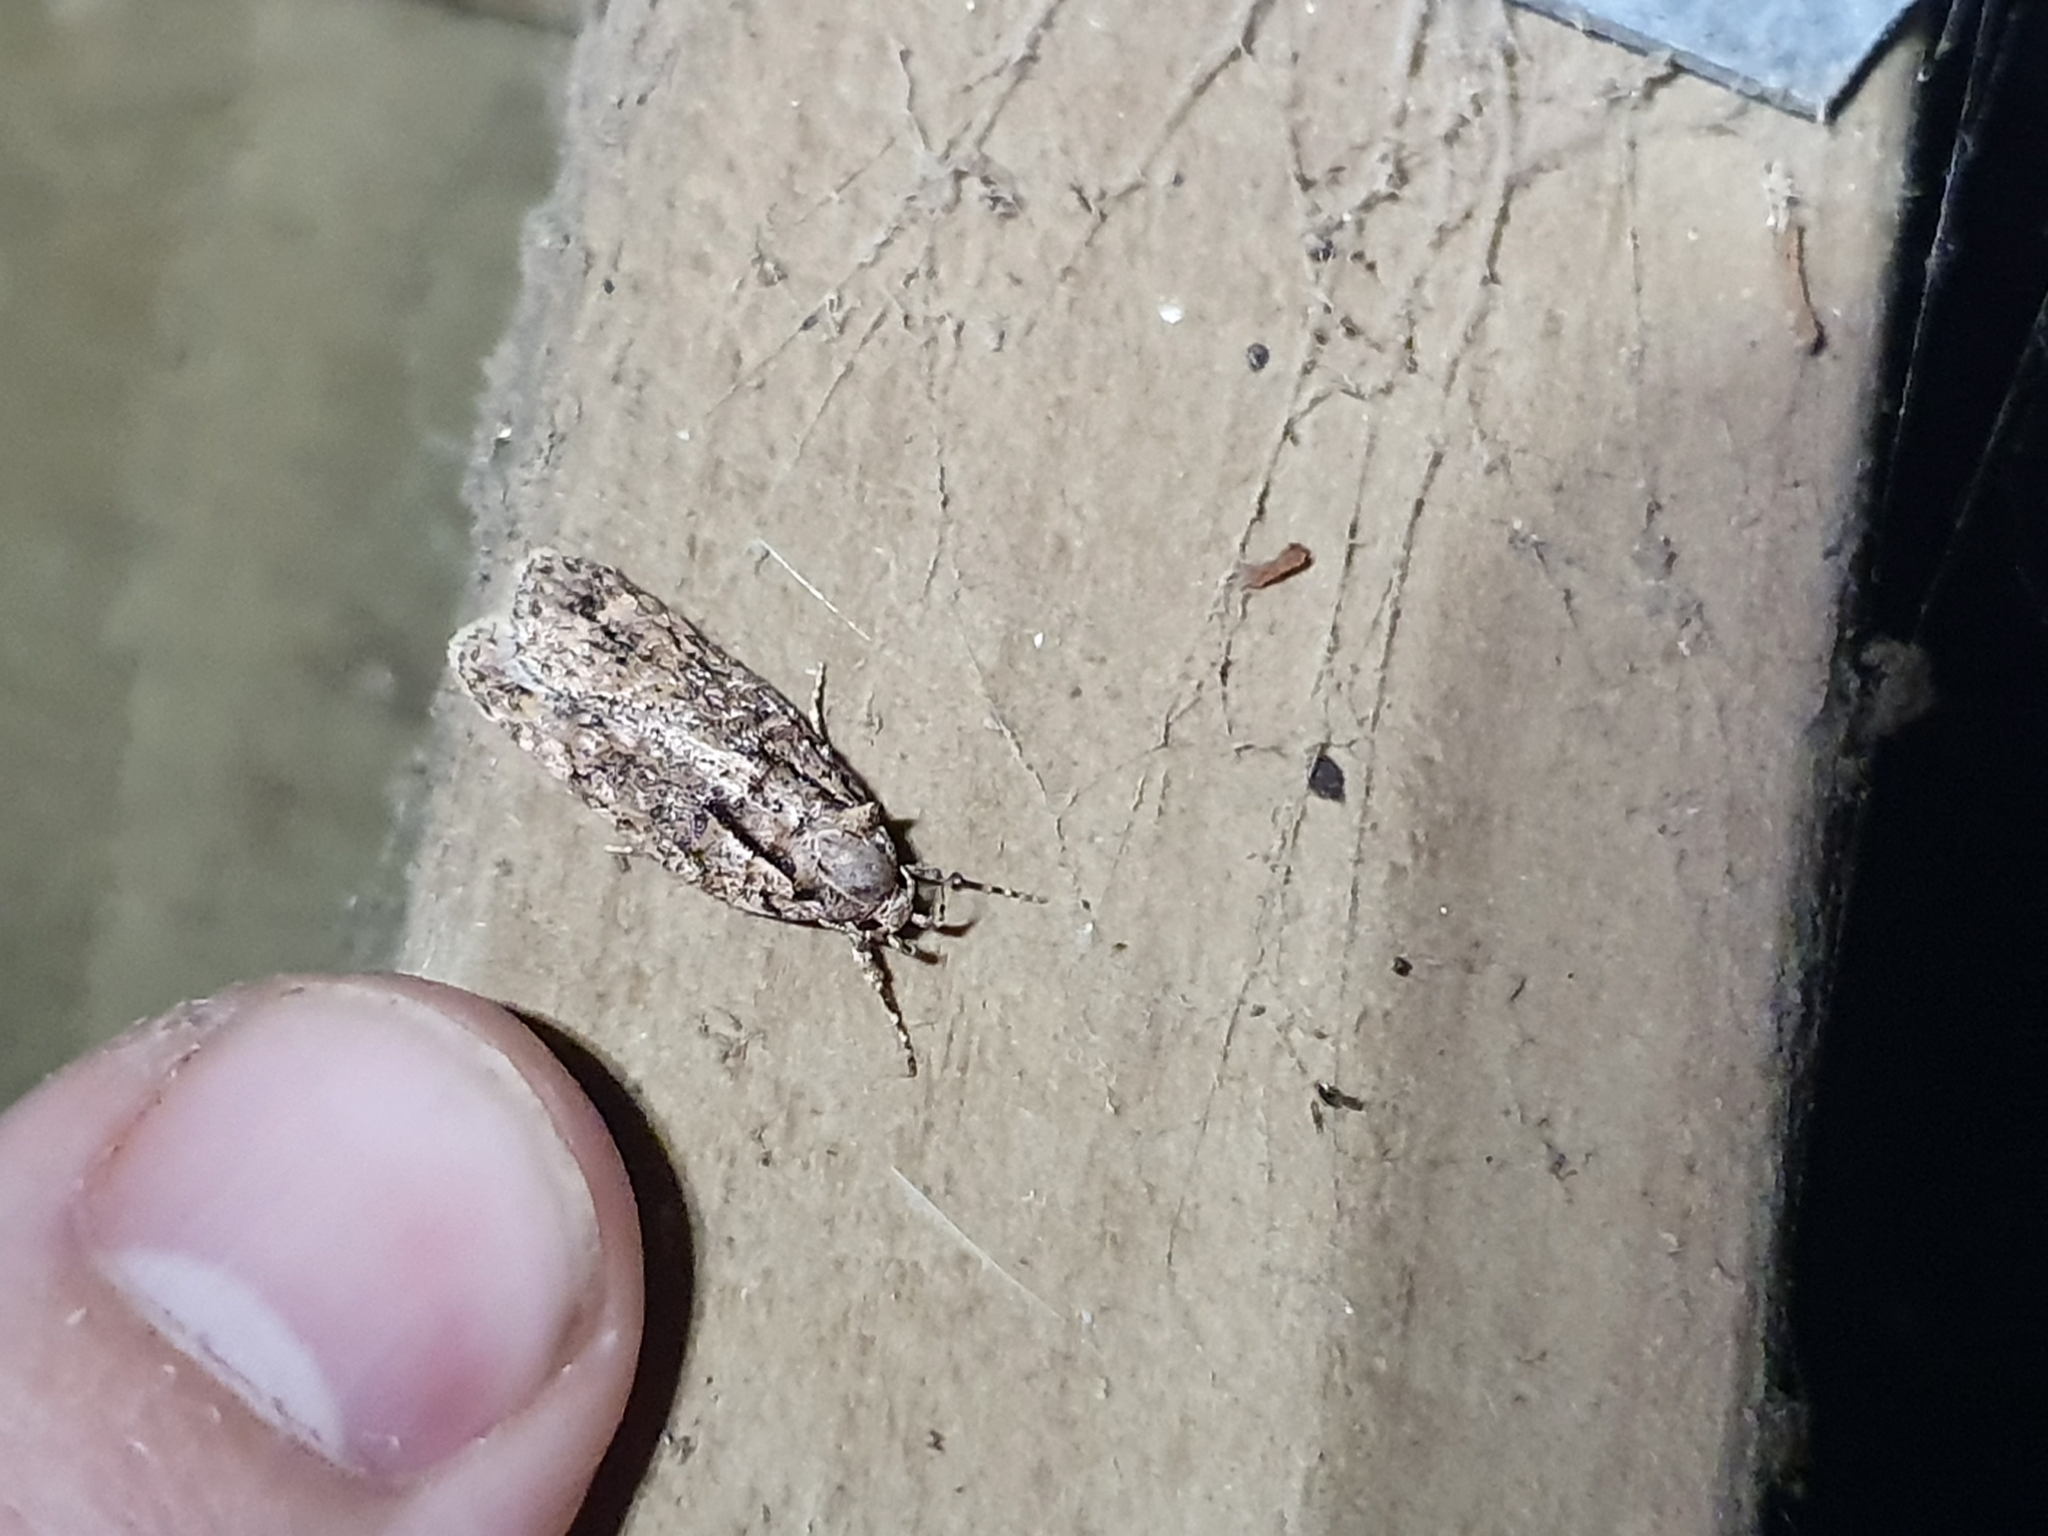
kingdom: Animalia
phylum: Arthropoda
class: Insecta
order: Lepidoptera
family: Oecophoridae
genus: Izatha
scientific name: Izatha attactella
